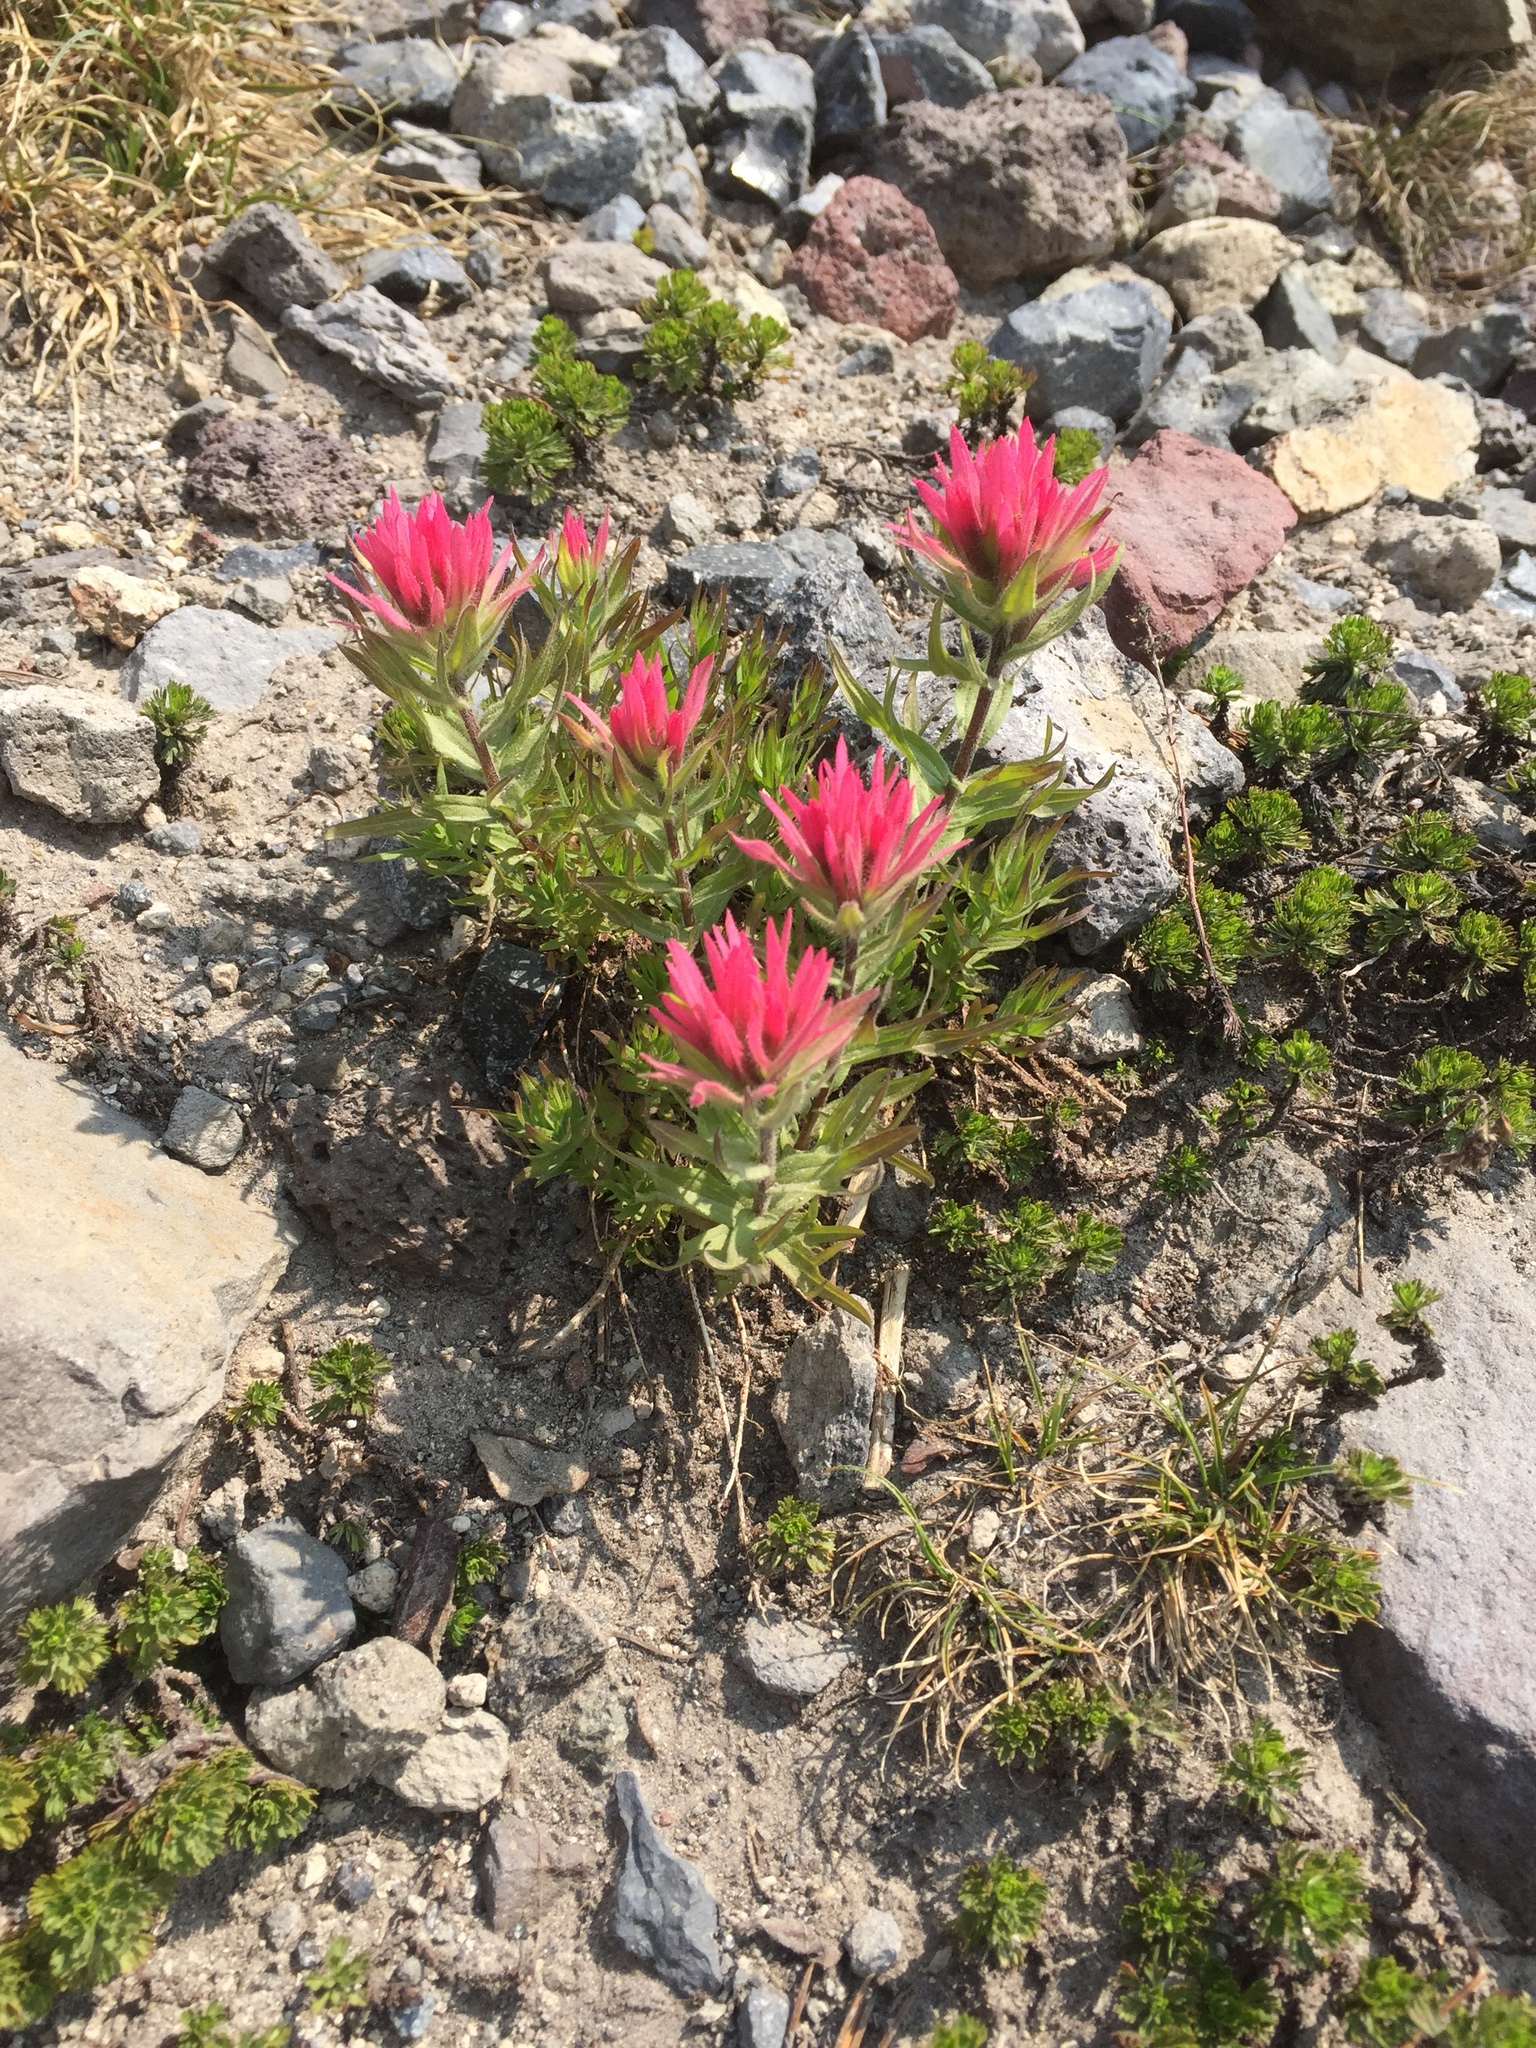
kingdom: Plantae
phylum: Tracheophyta
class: Magnoliopsida
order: Lamiales
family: Orobanchaceae
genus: Castilleja
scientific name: Castilleja parviflora
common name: Mountain paintbrush
